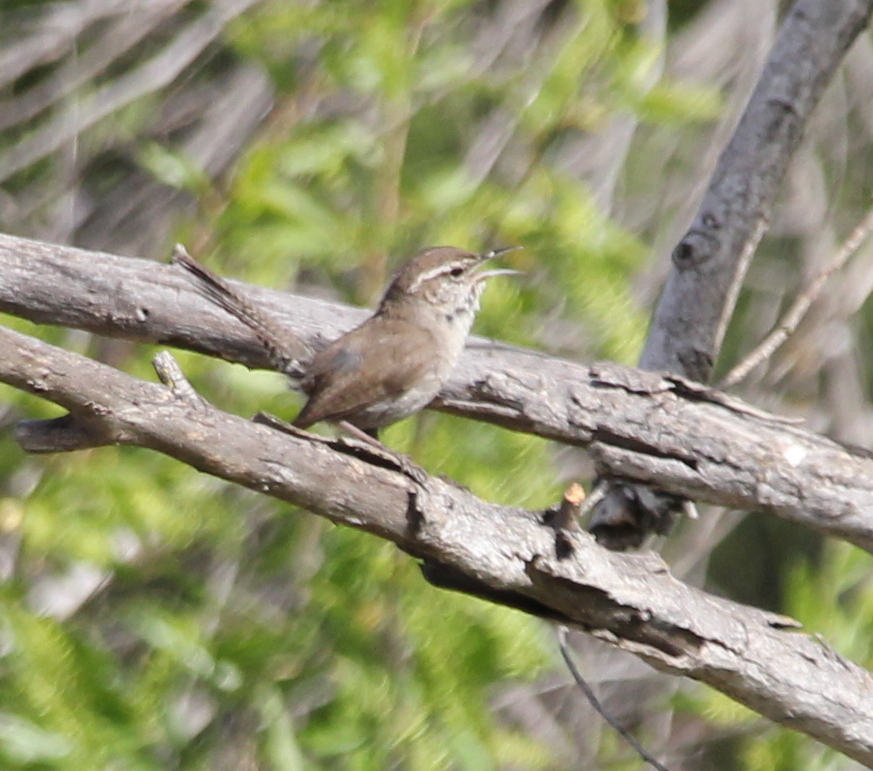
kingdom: Animalia
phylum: Chordata
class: Aves
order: Passeriformes
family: Troglodytidae
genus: Thryomanes
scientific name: Thryomanes bewickii
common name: Bewick's wren
